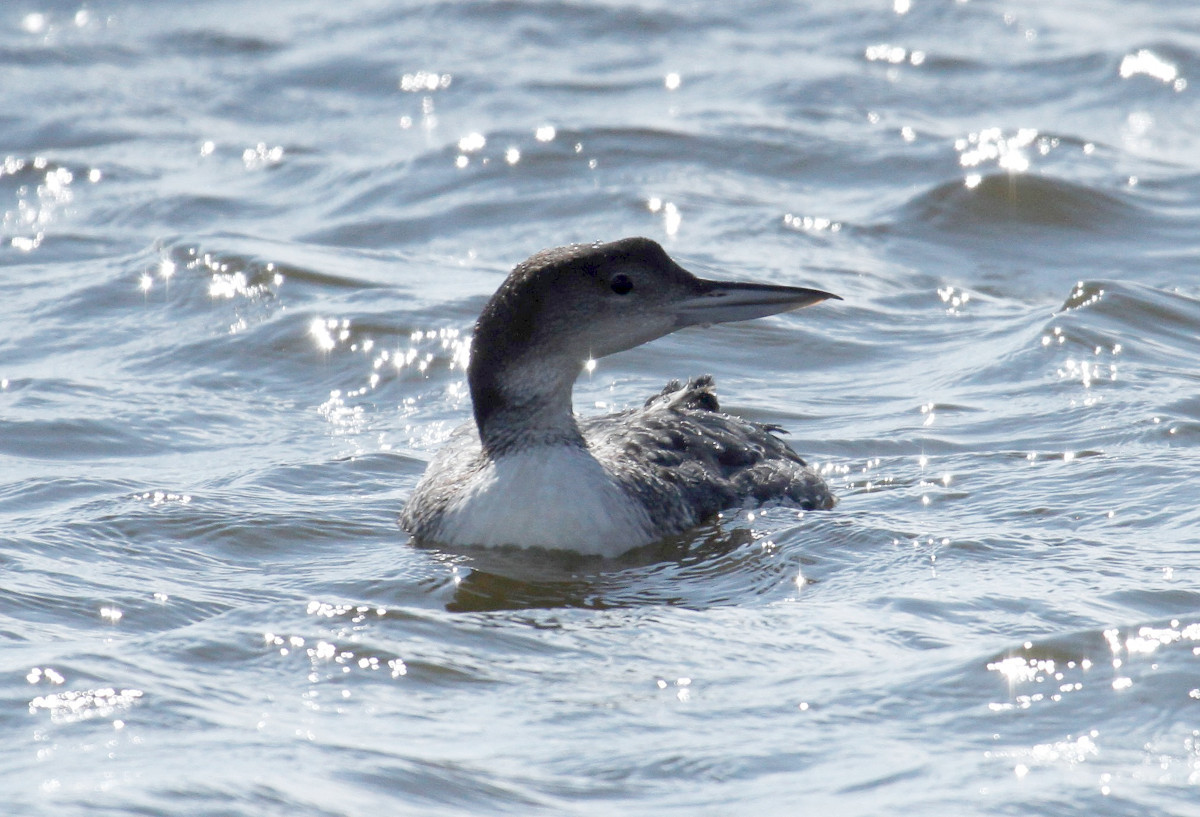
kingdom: Animalia
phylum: Chordata
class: Aves
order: Gaviiformes
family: Gaviidae
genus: Gavia
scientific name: Gavia immer
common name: Common loon
